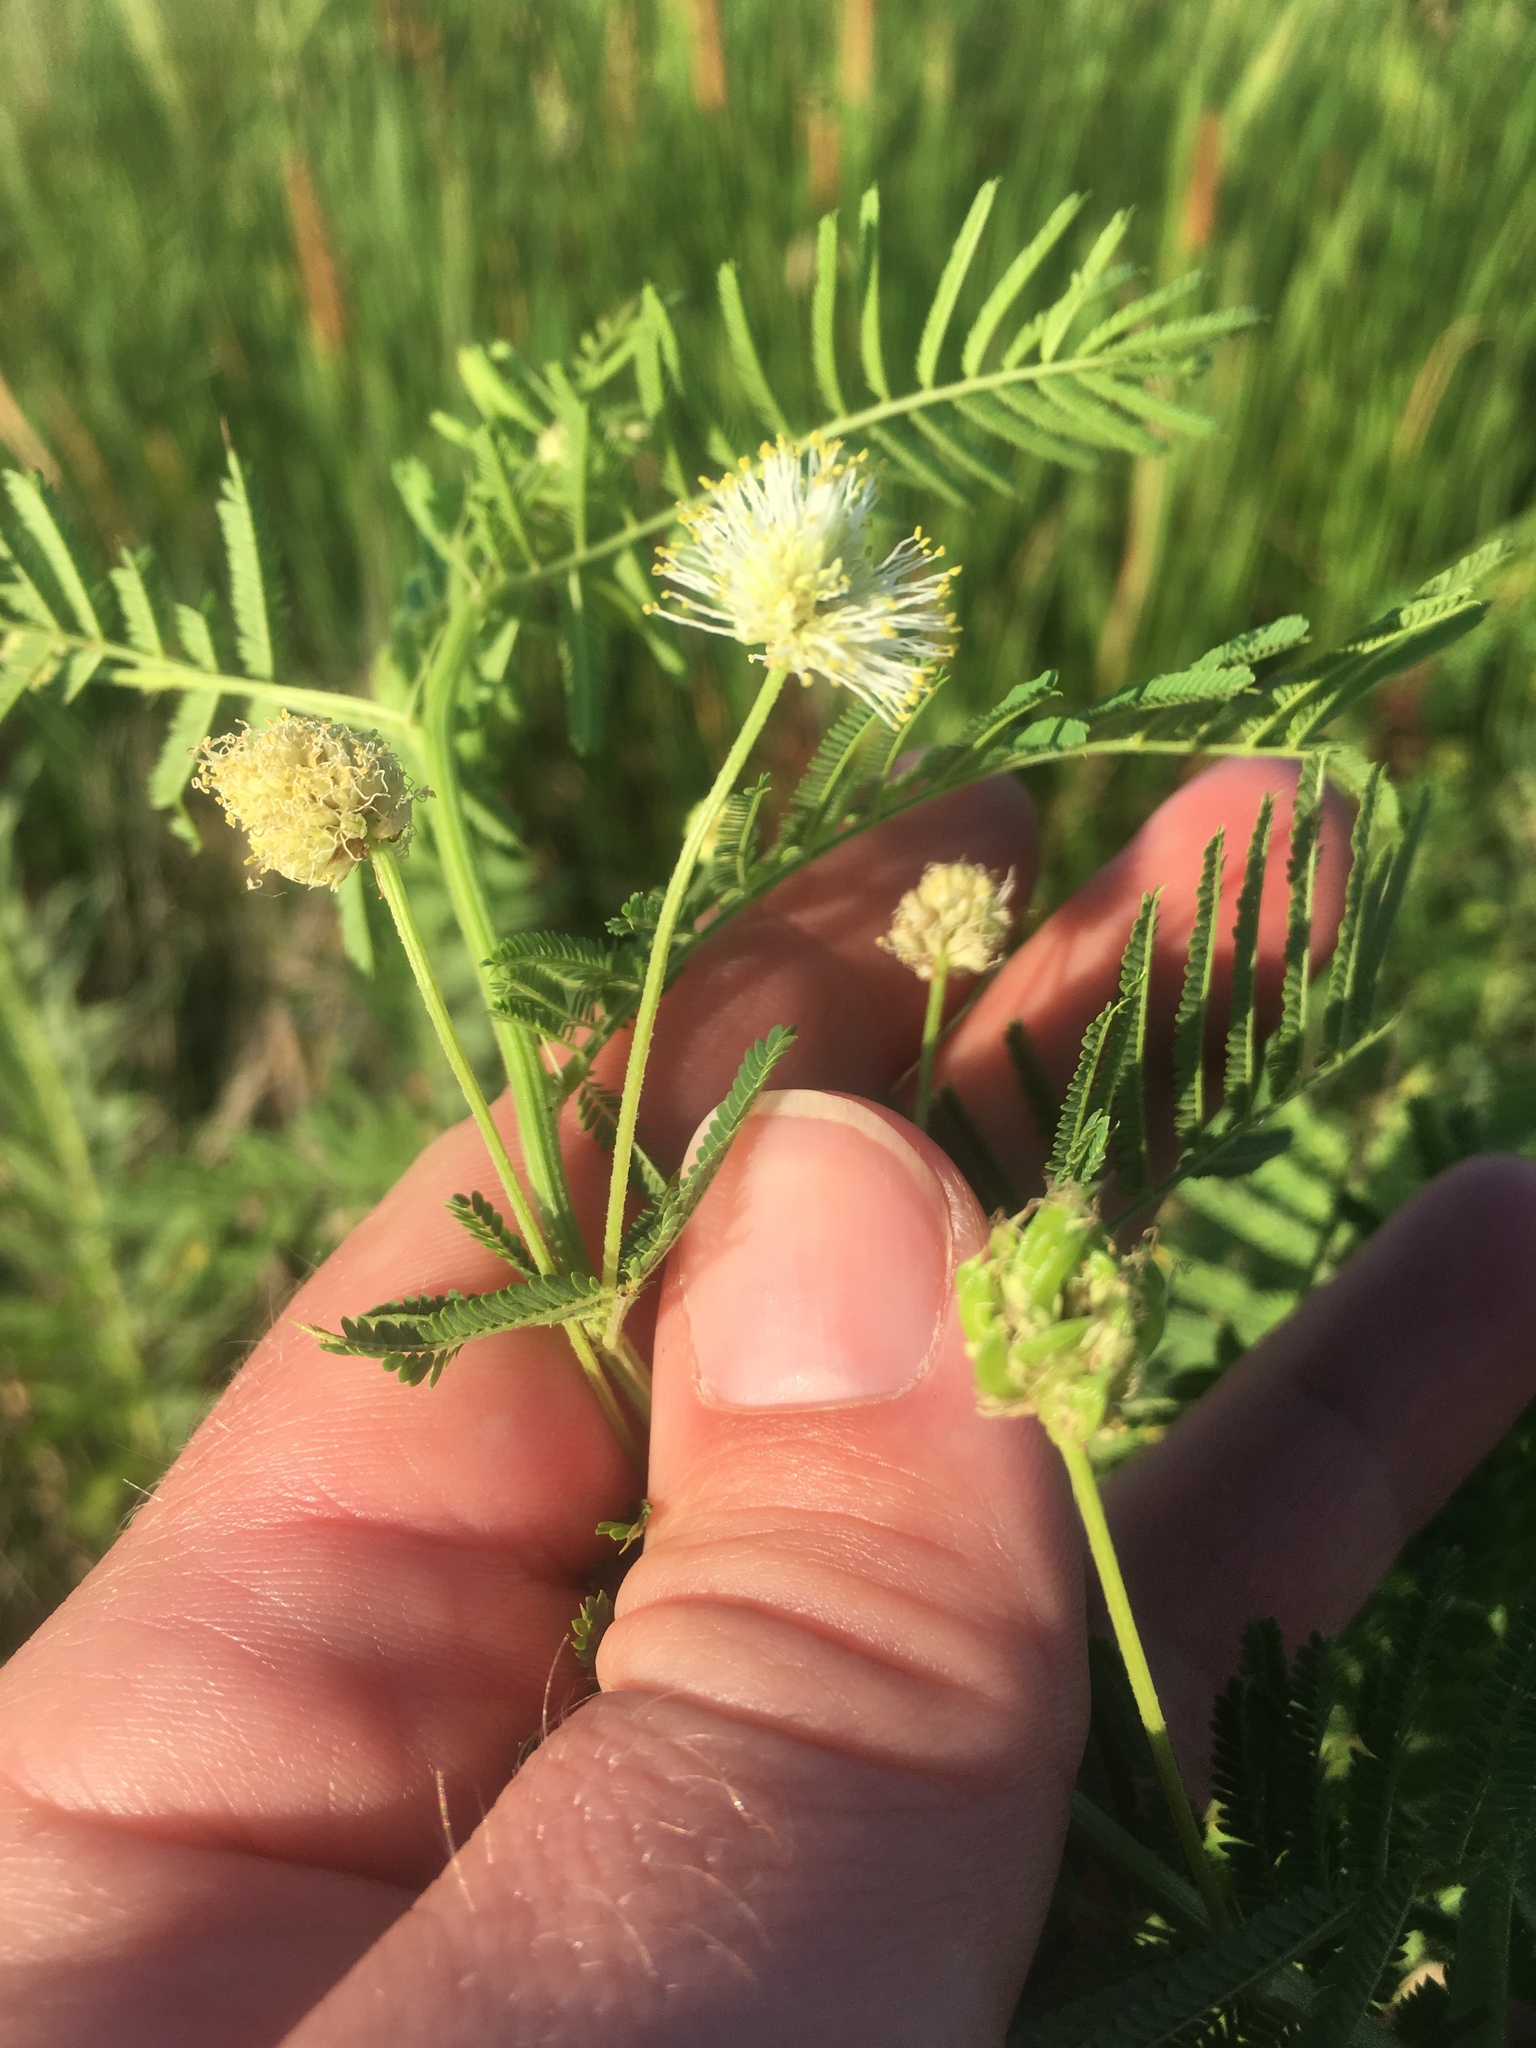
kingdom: Plantae
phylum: Tracheophyta
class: Magnoliopsida
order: Fabales
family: Fabaceae
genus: Desmanthus
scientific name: Desmanthus illinoensis
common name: Illinois bundle-flower
